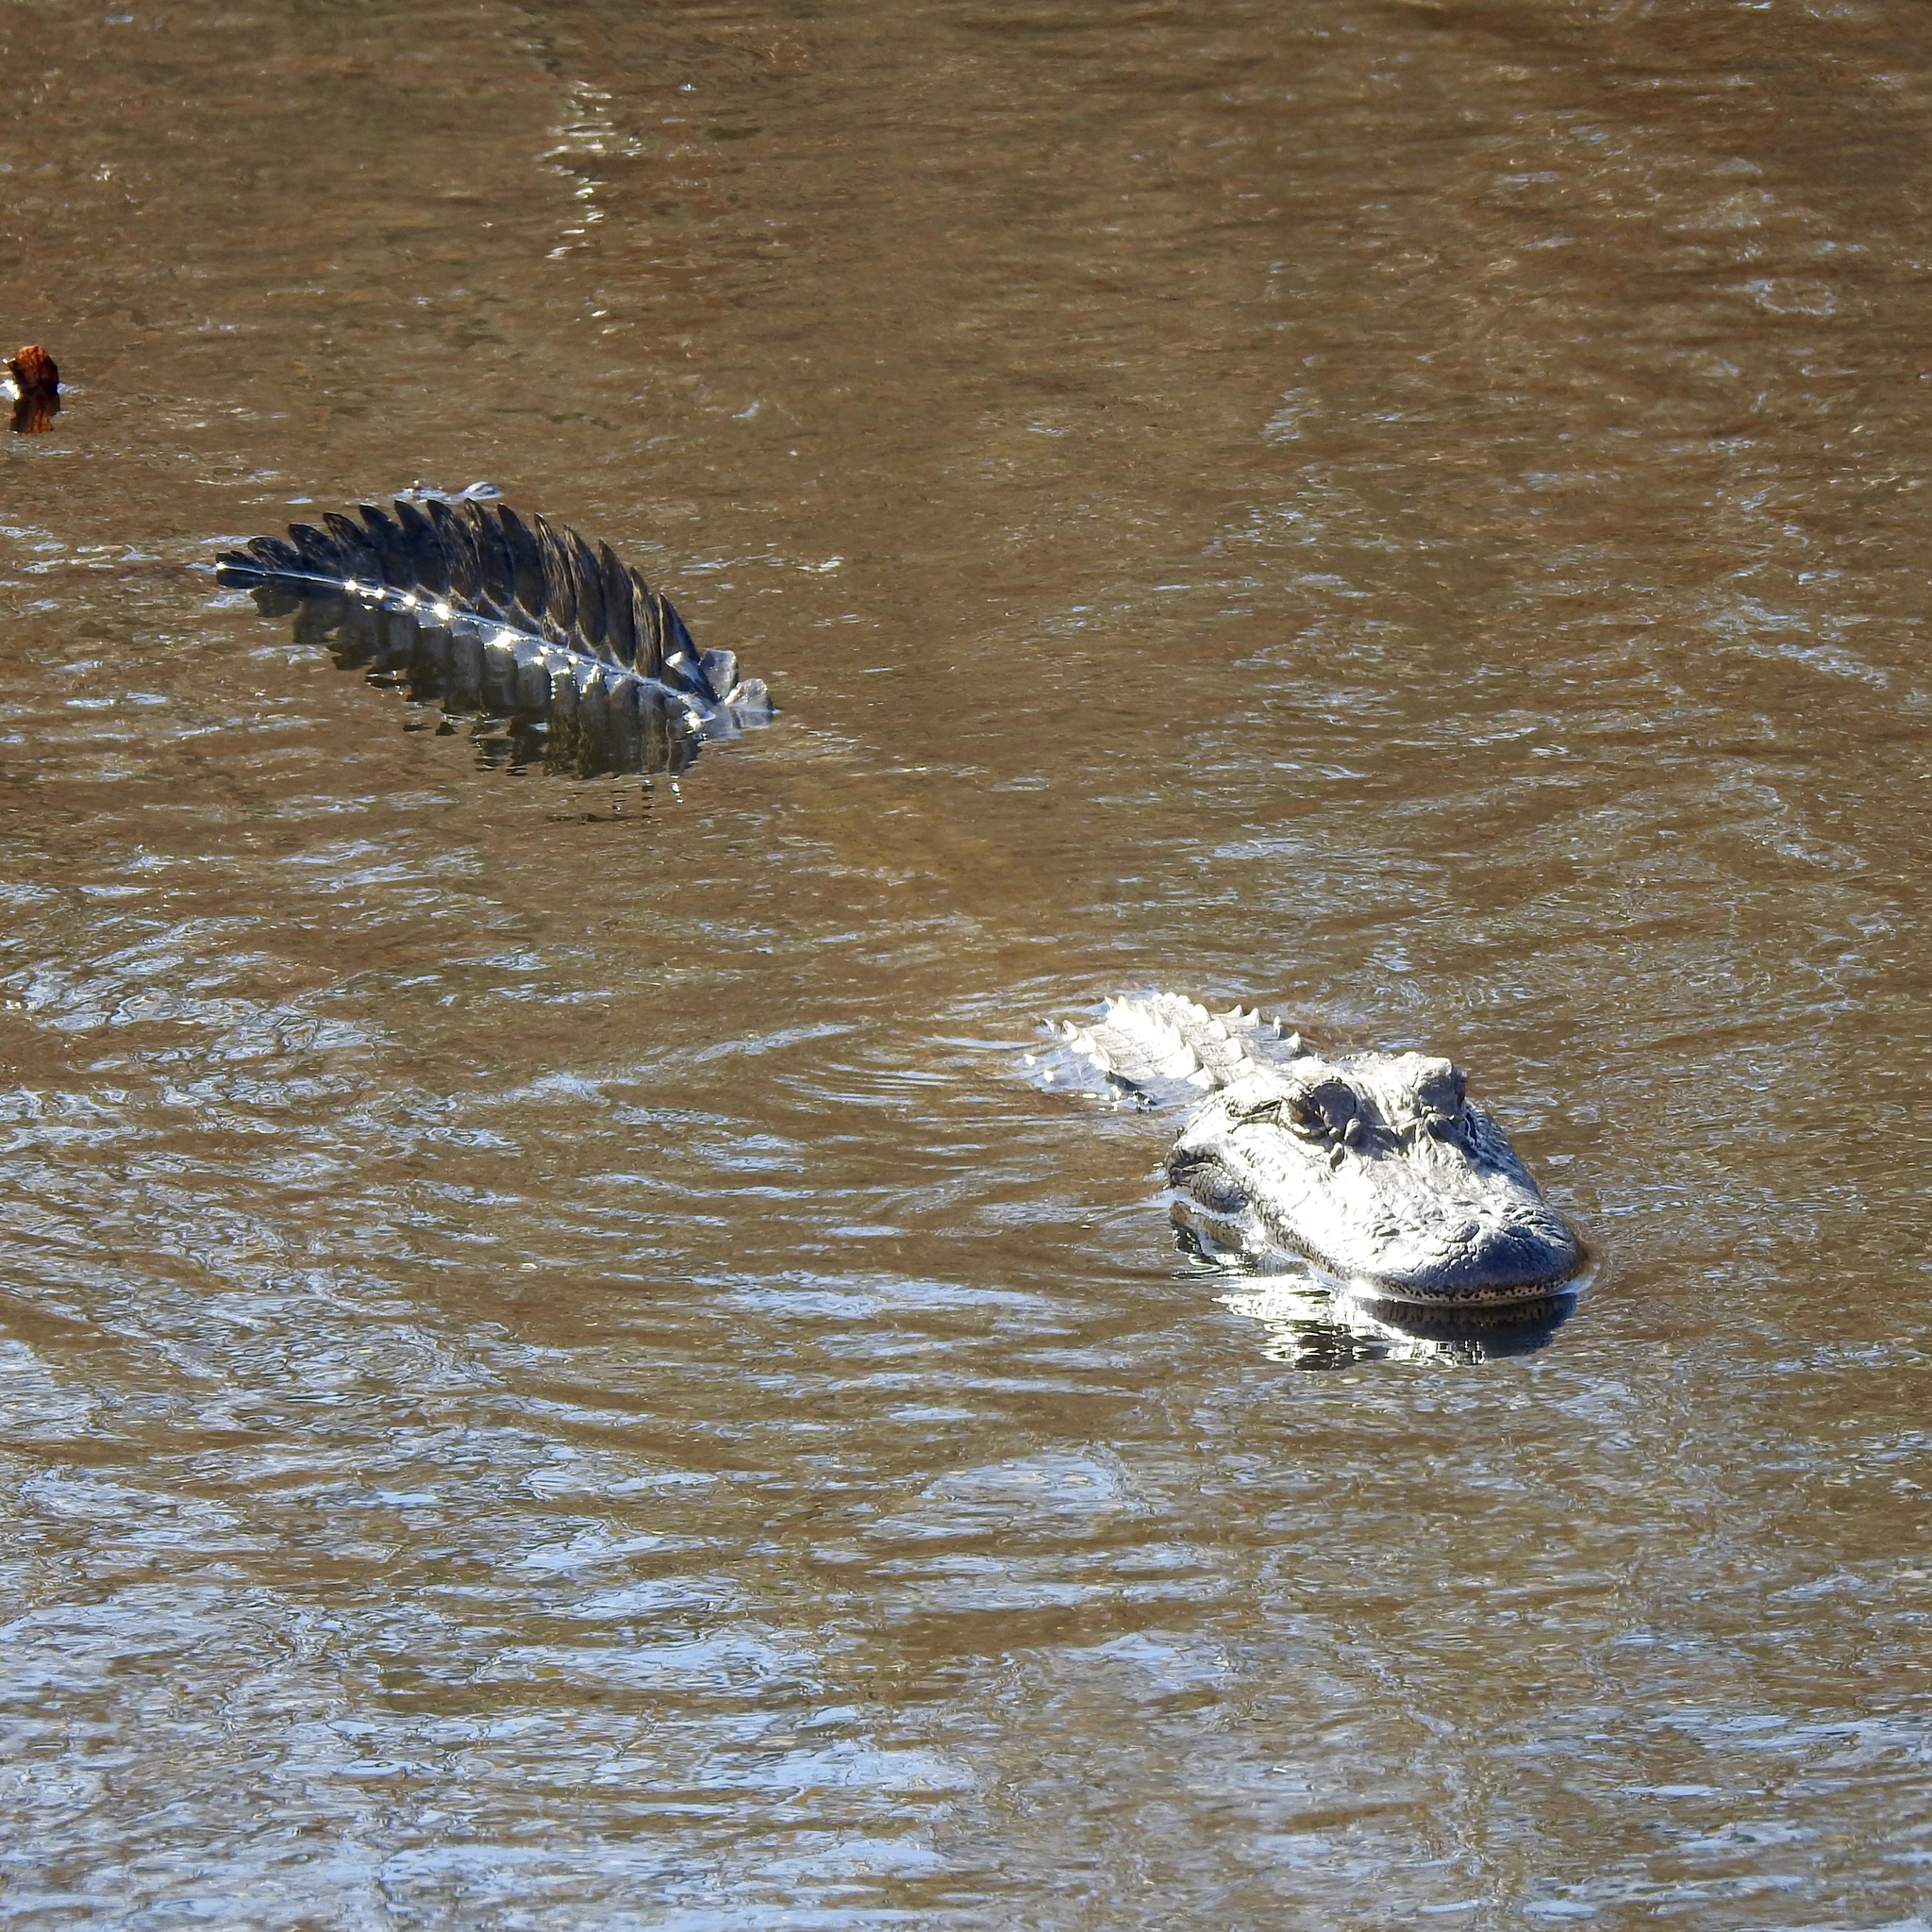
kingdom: Animalia
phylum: Chordata
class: Crocodylia
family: Alligatoridae
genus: Alligator
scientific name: Alligator mississippiensis
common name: American alligator
